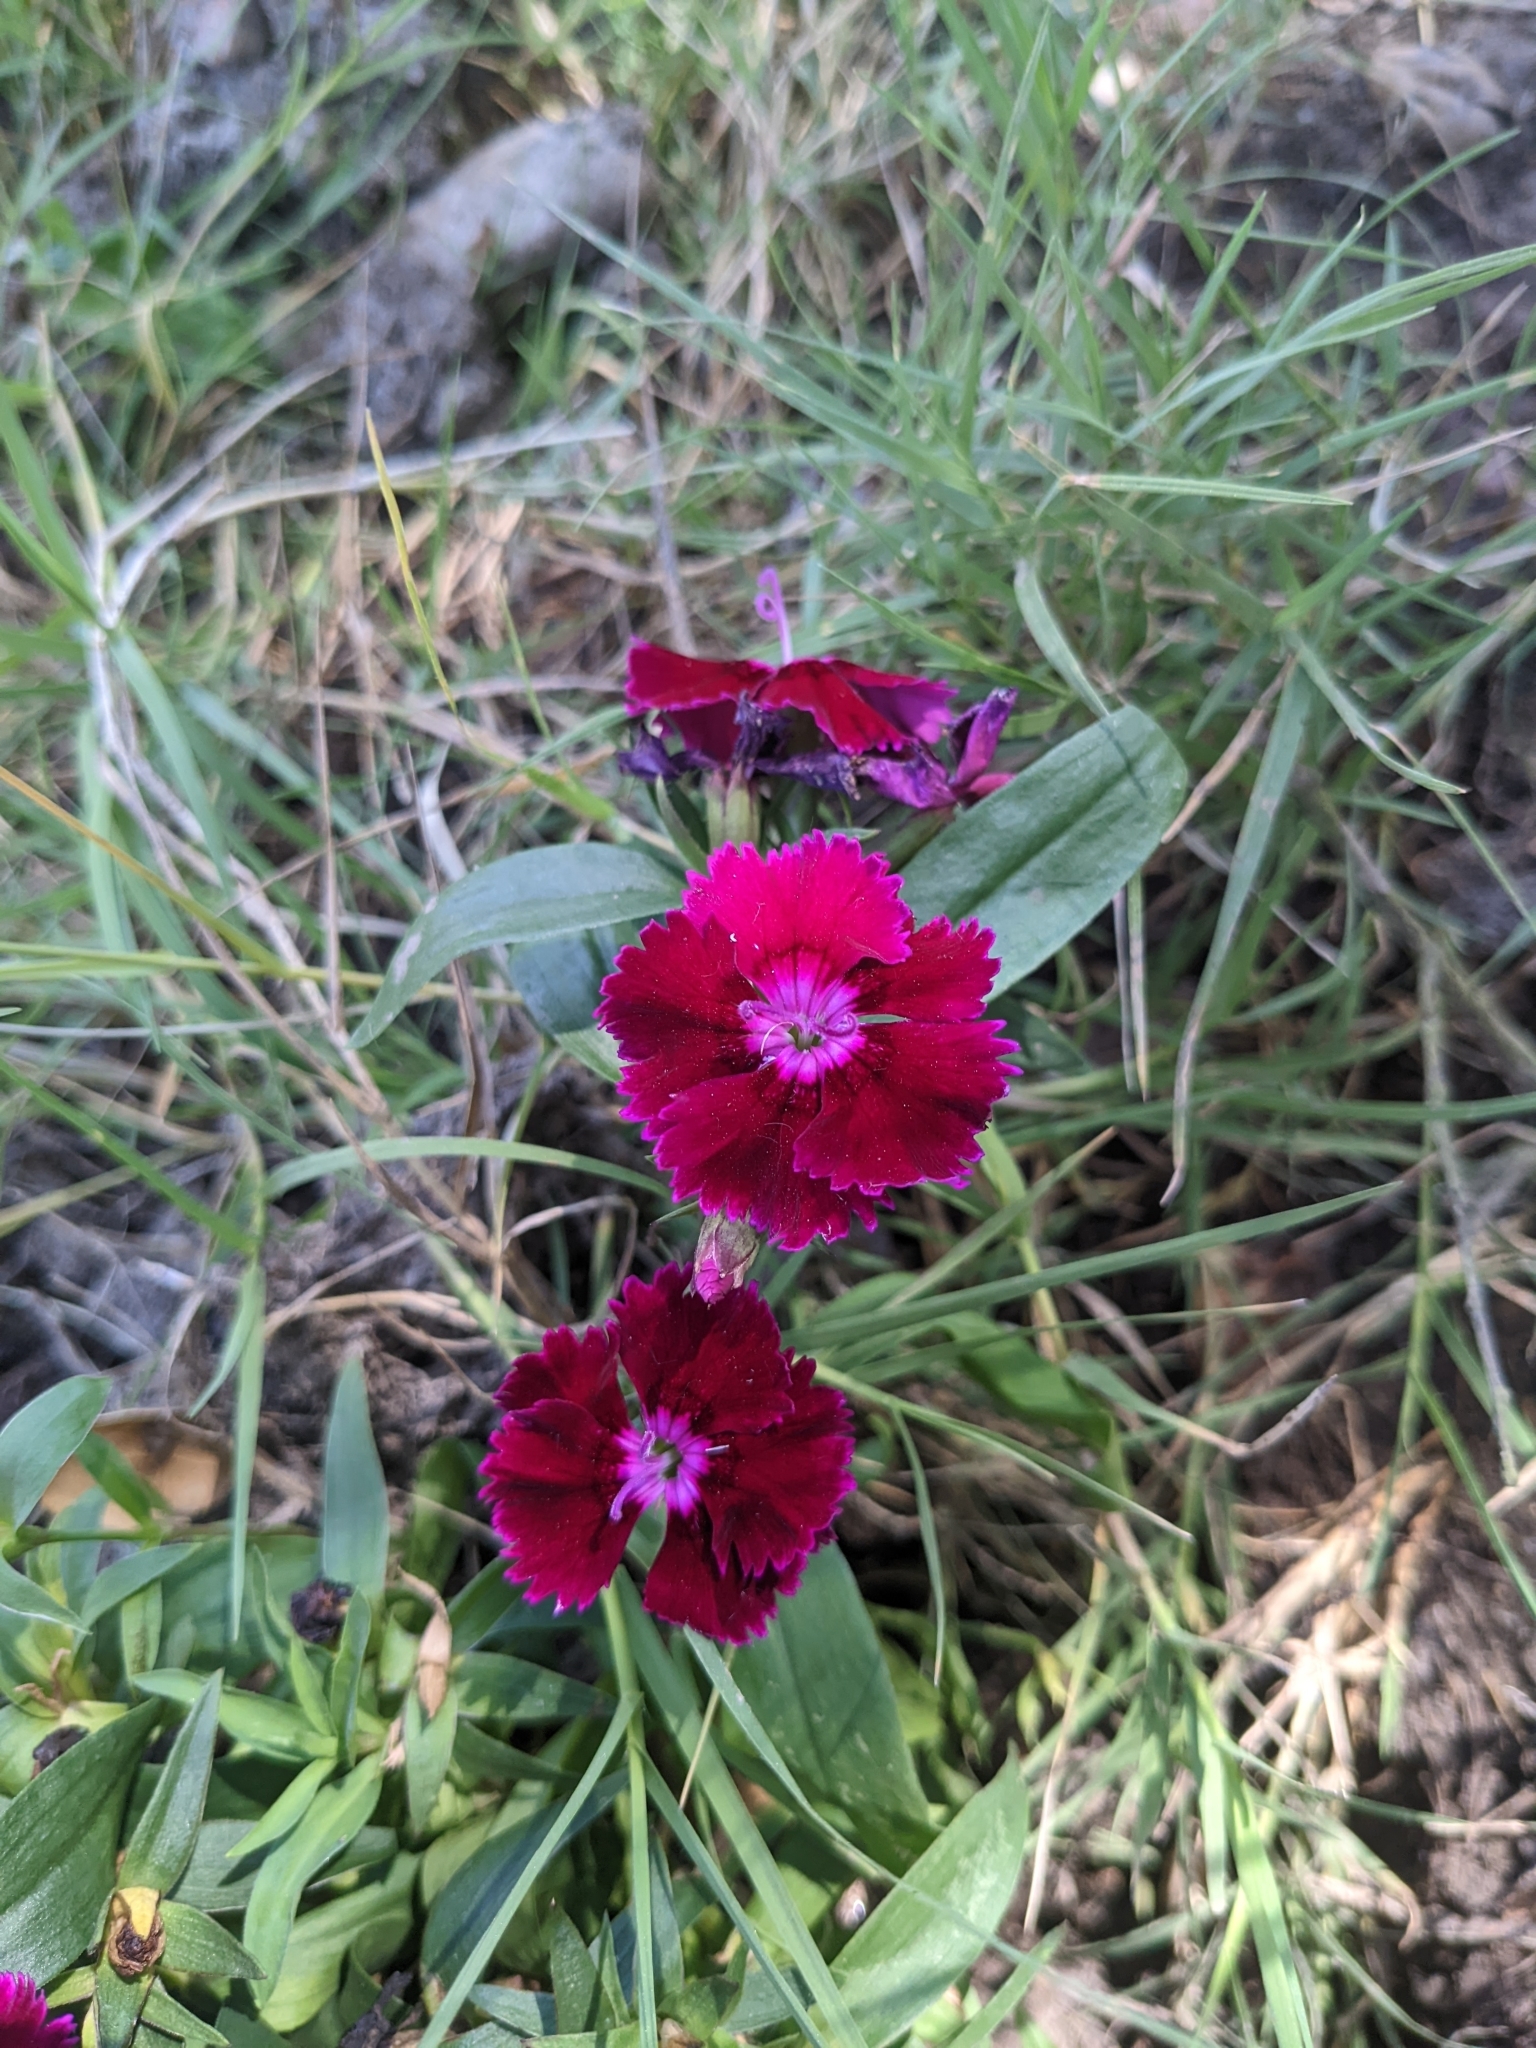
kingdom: Plantae
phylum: Tracheophyta
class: Magnoliopsida
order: Caryophyllales
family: Caryophyllaceae
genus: Dianthus
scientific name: Dianthus barbatus
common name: Sweet-william
